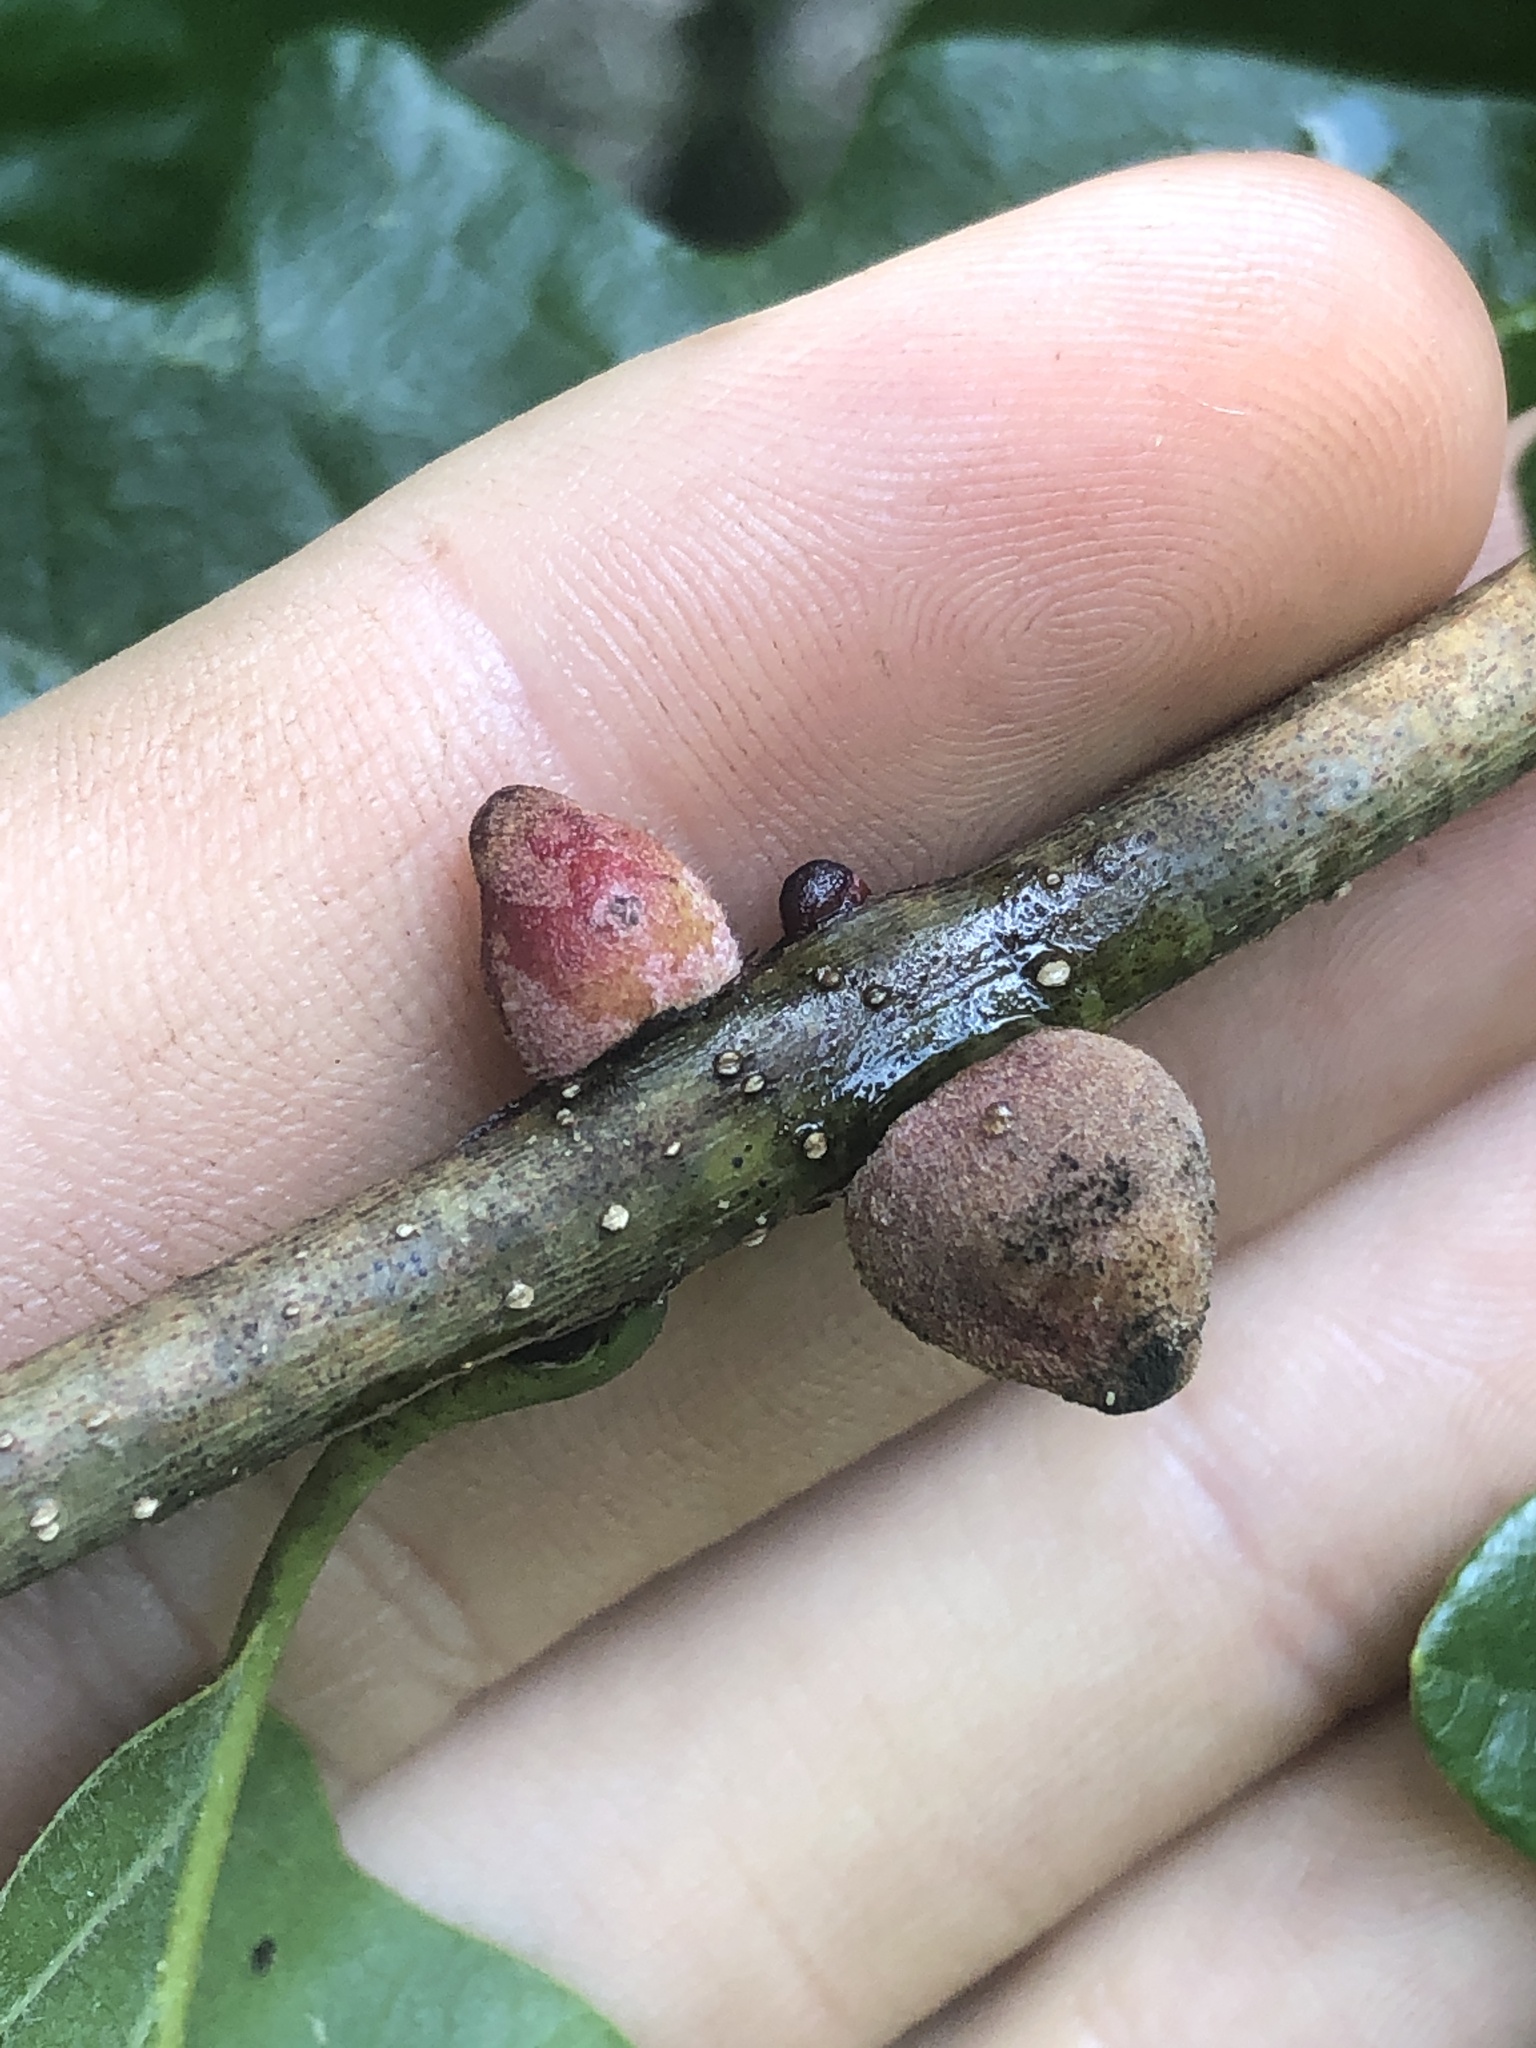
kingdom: Animalia
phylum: Arthropoda
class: Insecta
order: Hymenoptera
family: Cynipidae
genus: Disholcaspis
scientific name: Disholcaspis
